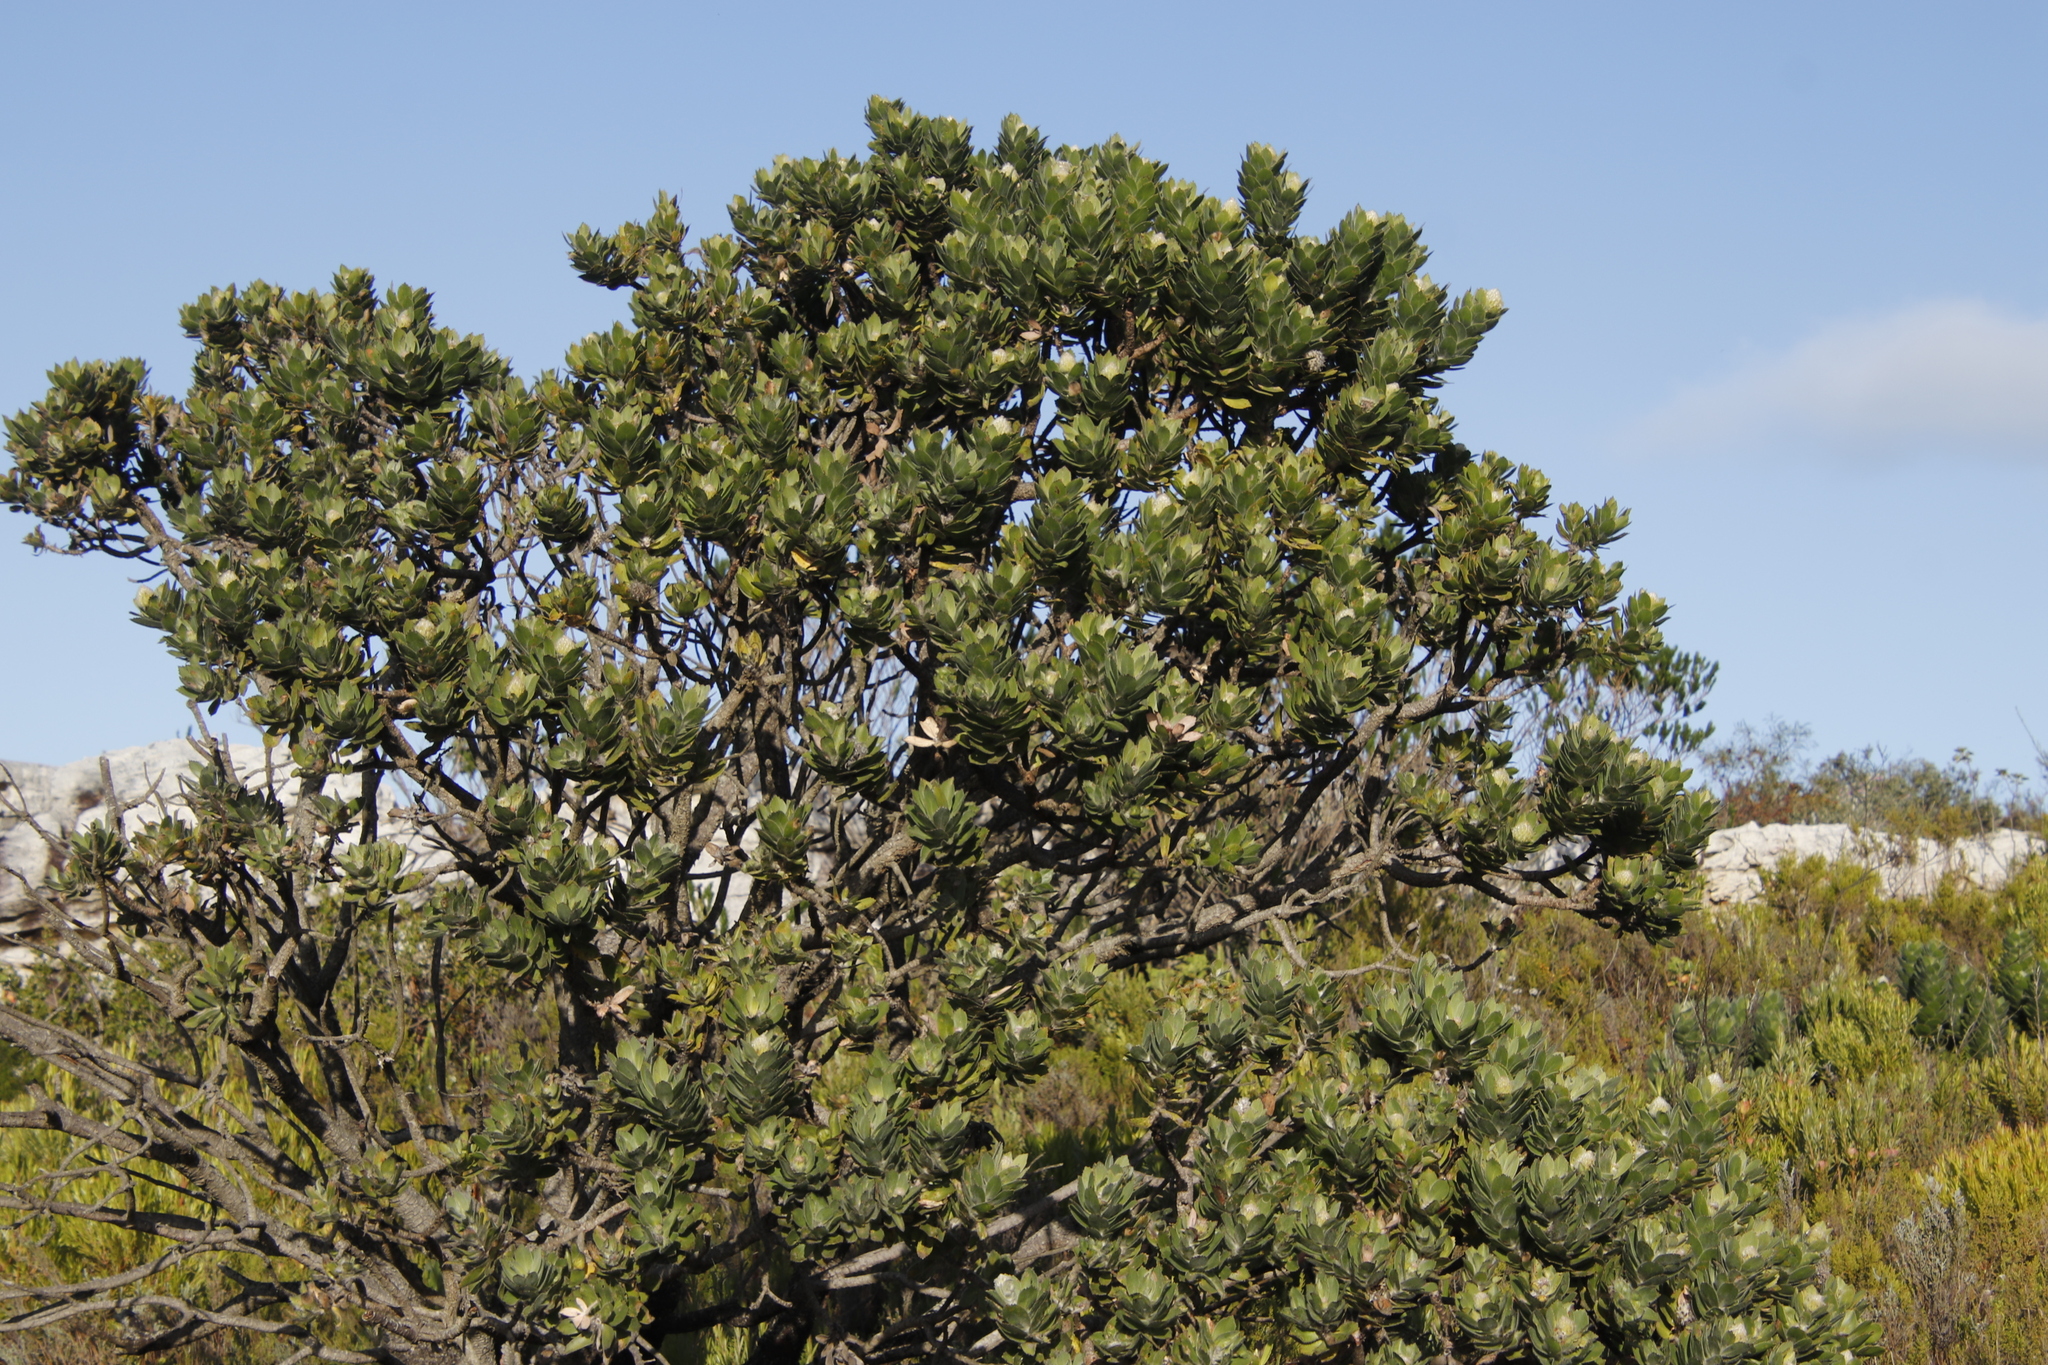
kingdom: Plantae
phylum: Tracheophyta
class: Magnoliopsida
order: Proteales
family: Proteaceae
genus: Leucospermum
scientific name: Leucospermum conocarpodendron
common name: Tree pincushion
